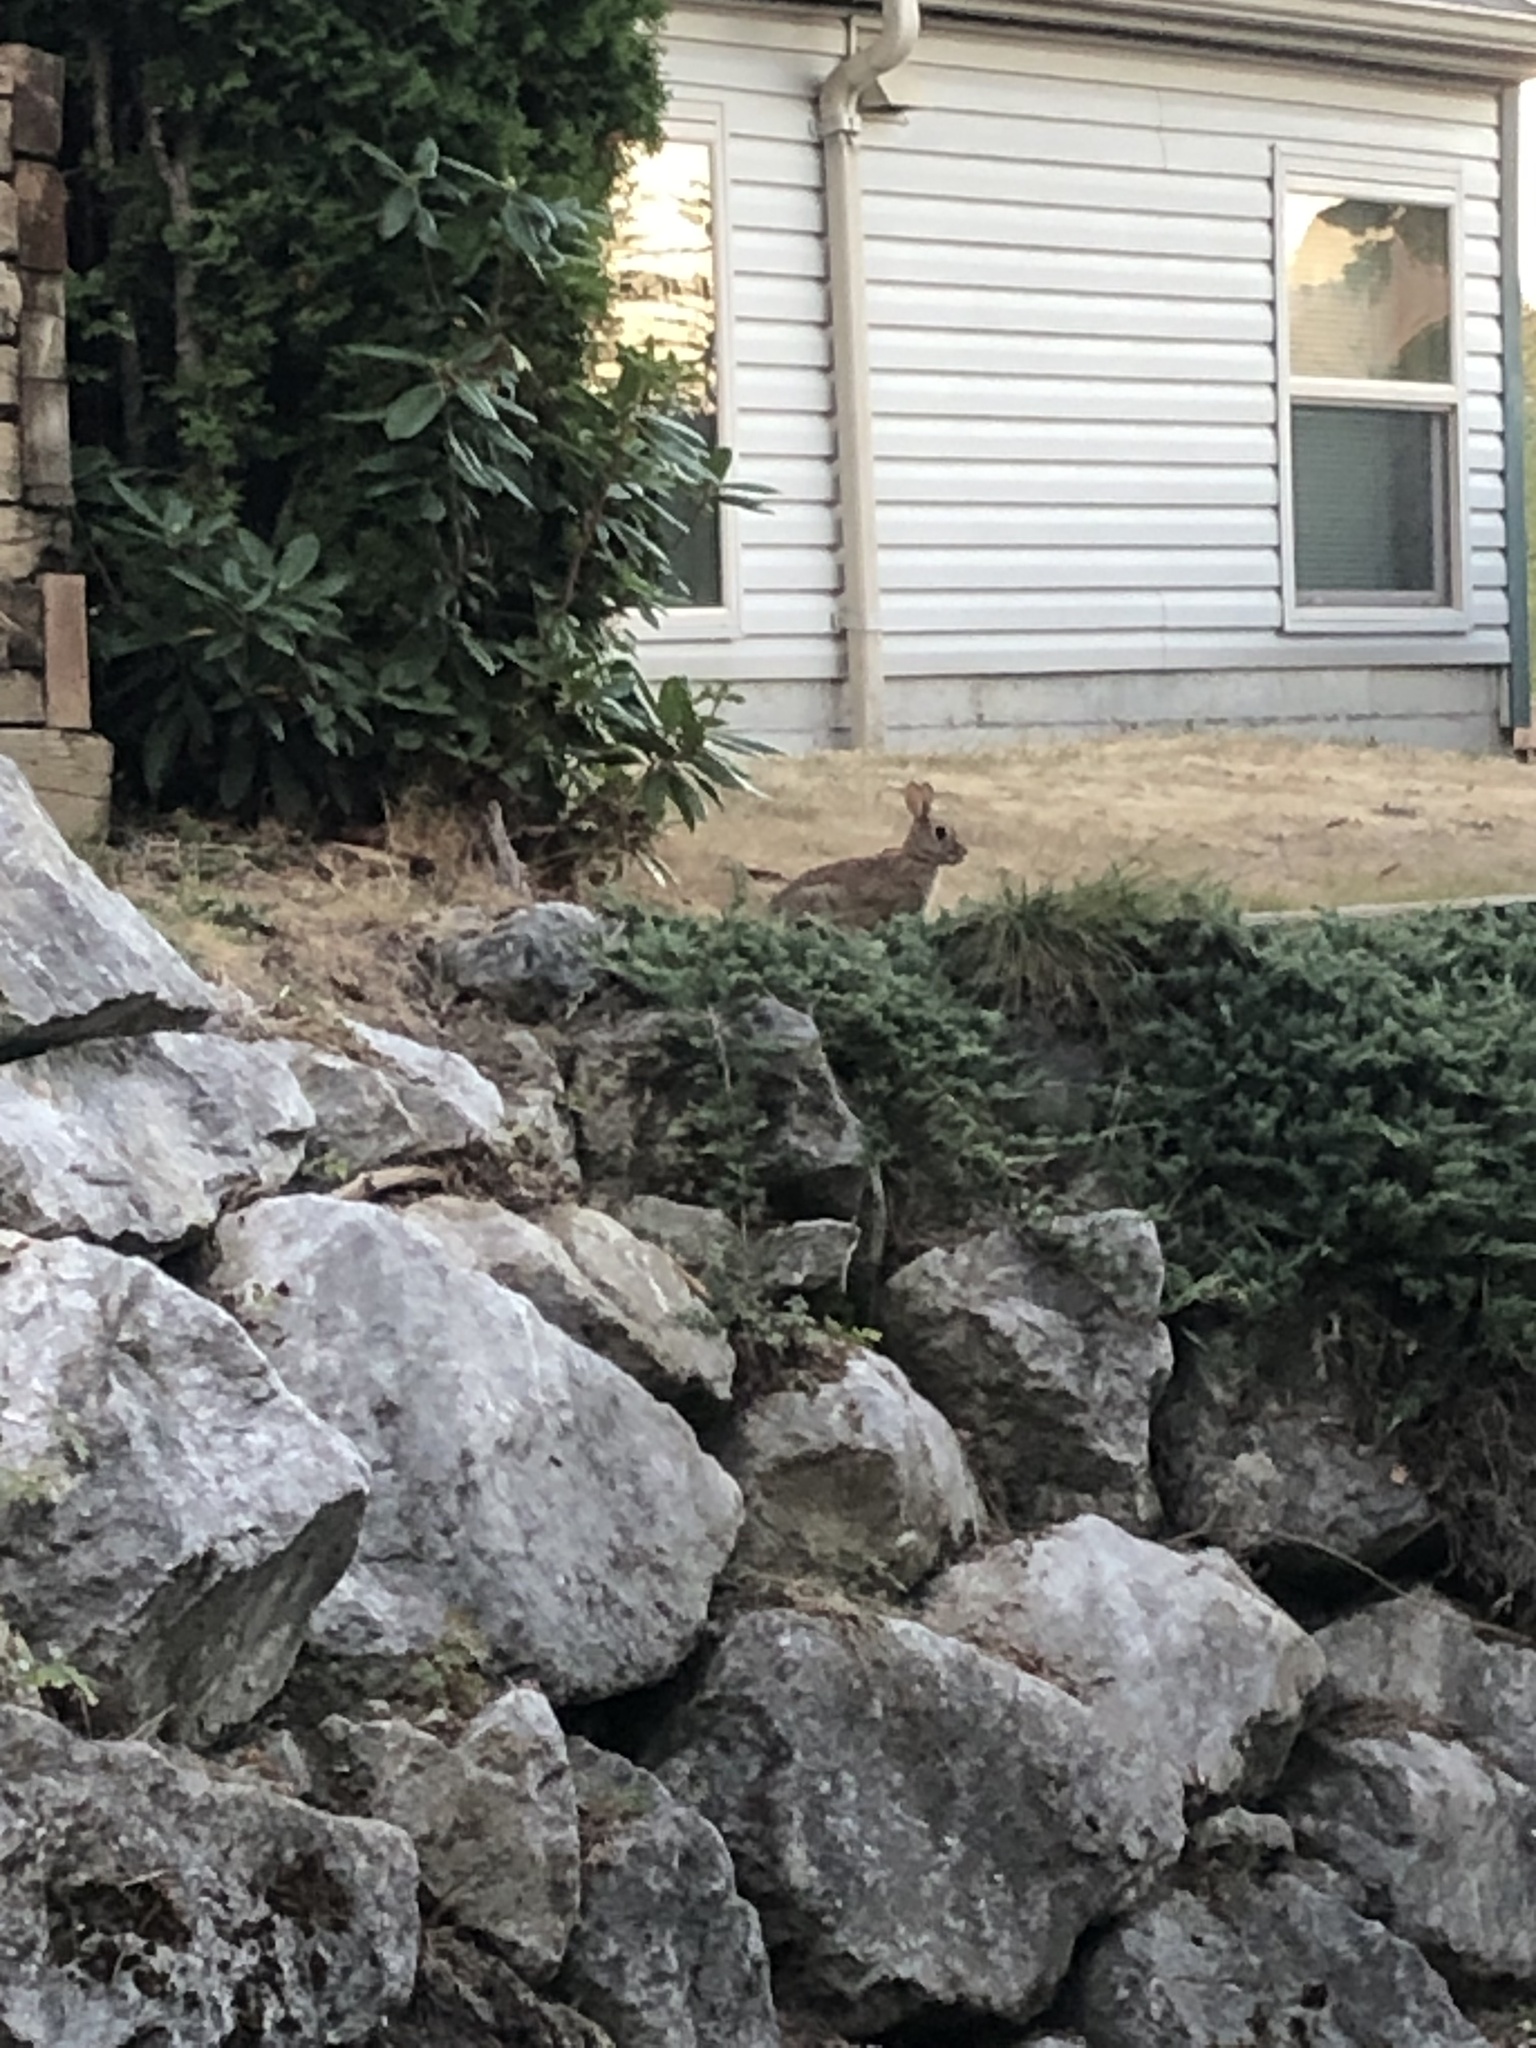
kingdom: Animalia
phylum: Chordata
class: Mammalia
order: Lagomorpha
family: Leporidae
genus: Sylvilagus
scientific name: Sylvilagus floridanus
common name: Eastern cottontail
